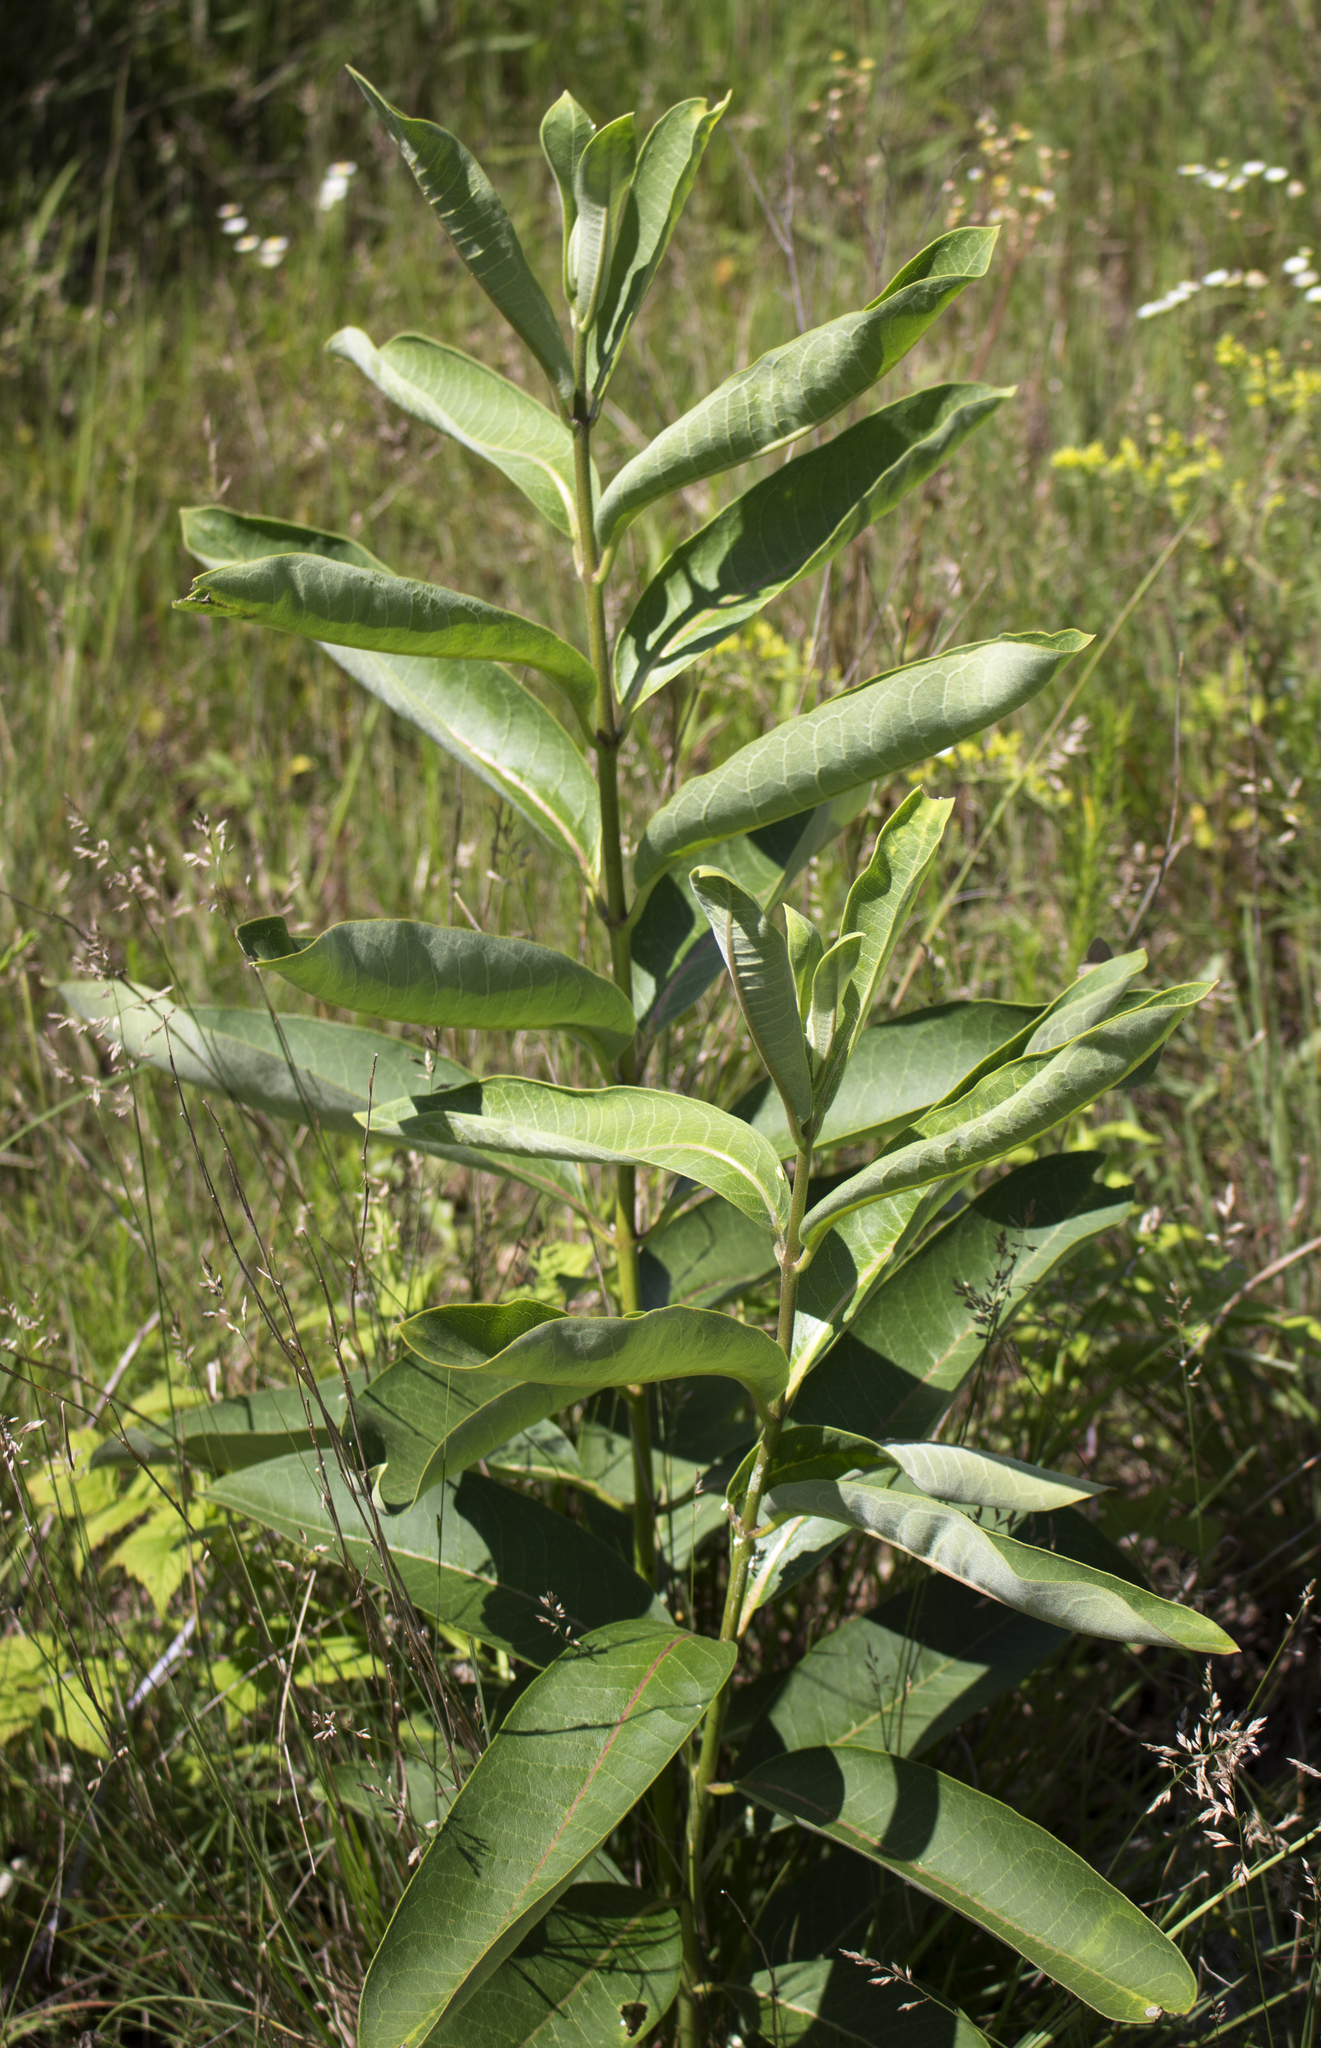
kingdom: Plantae
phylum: Tracheophyta
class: Magnoliopsida
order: Gentianales
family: Apocynaceae
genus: Asclepias
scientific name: Asclepias syriaca
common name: Common milkweed
